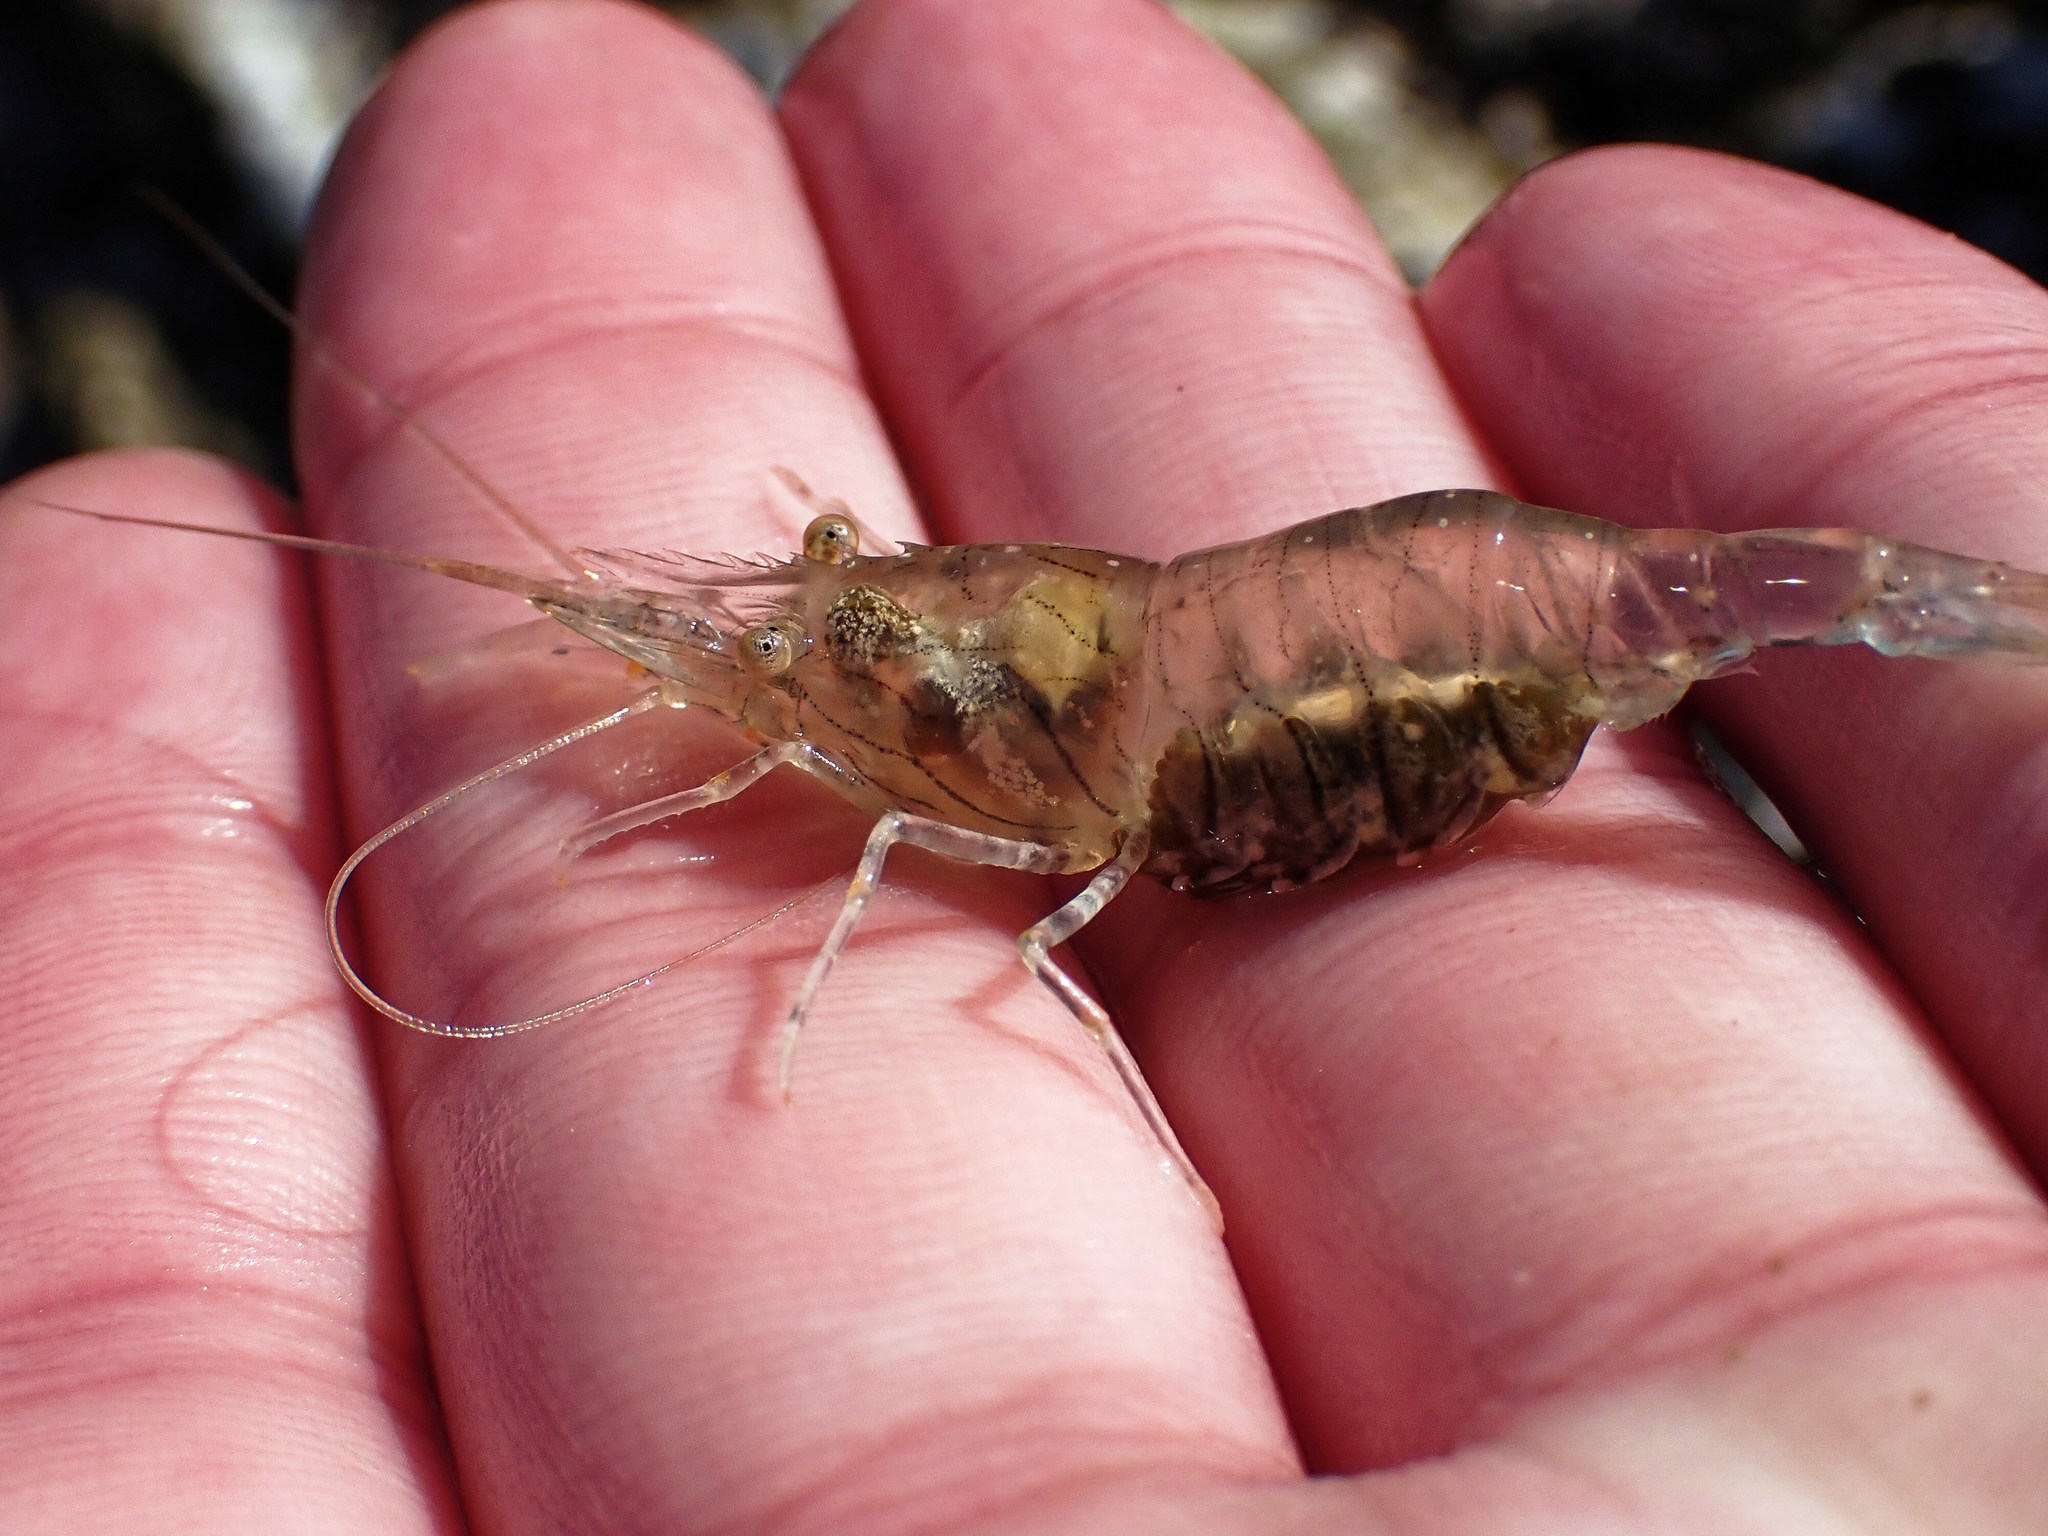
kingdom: Animalia
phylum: Arthropoda
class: Malacostraca
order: Decapoda
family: Palaemonidae
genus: Palaemon
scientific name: Palaemon elegans
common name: Grass prawm
